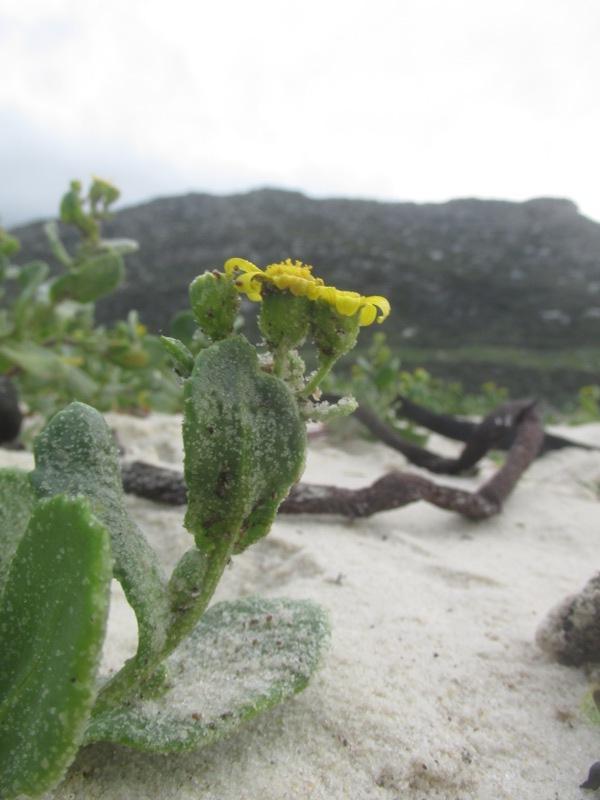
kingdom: Plantae
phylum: Tracheophyta
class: Magnoliopsida
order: Asterales
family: Asteraceae
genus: Senecio
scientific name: Senecio maritimus
